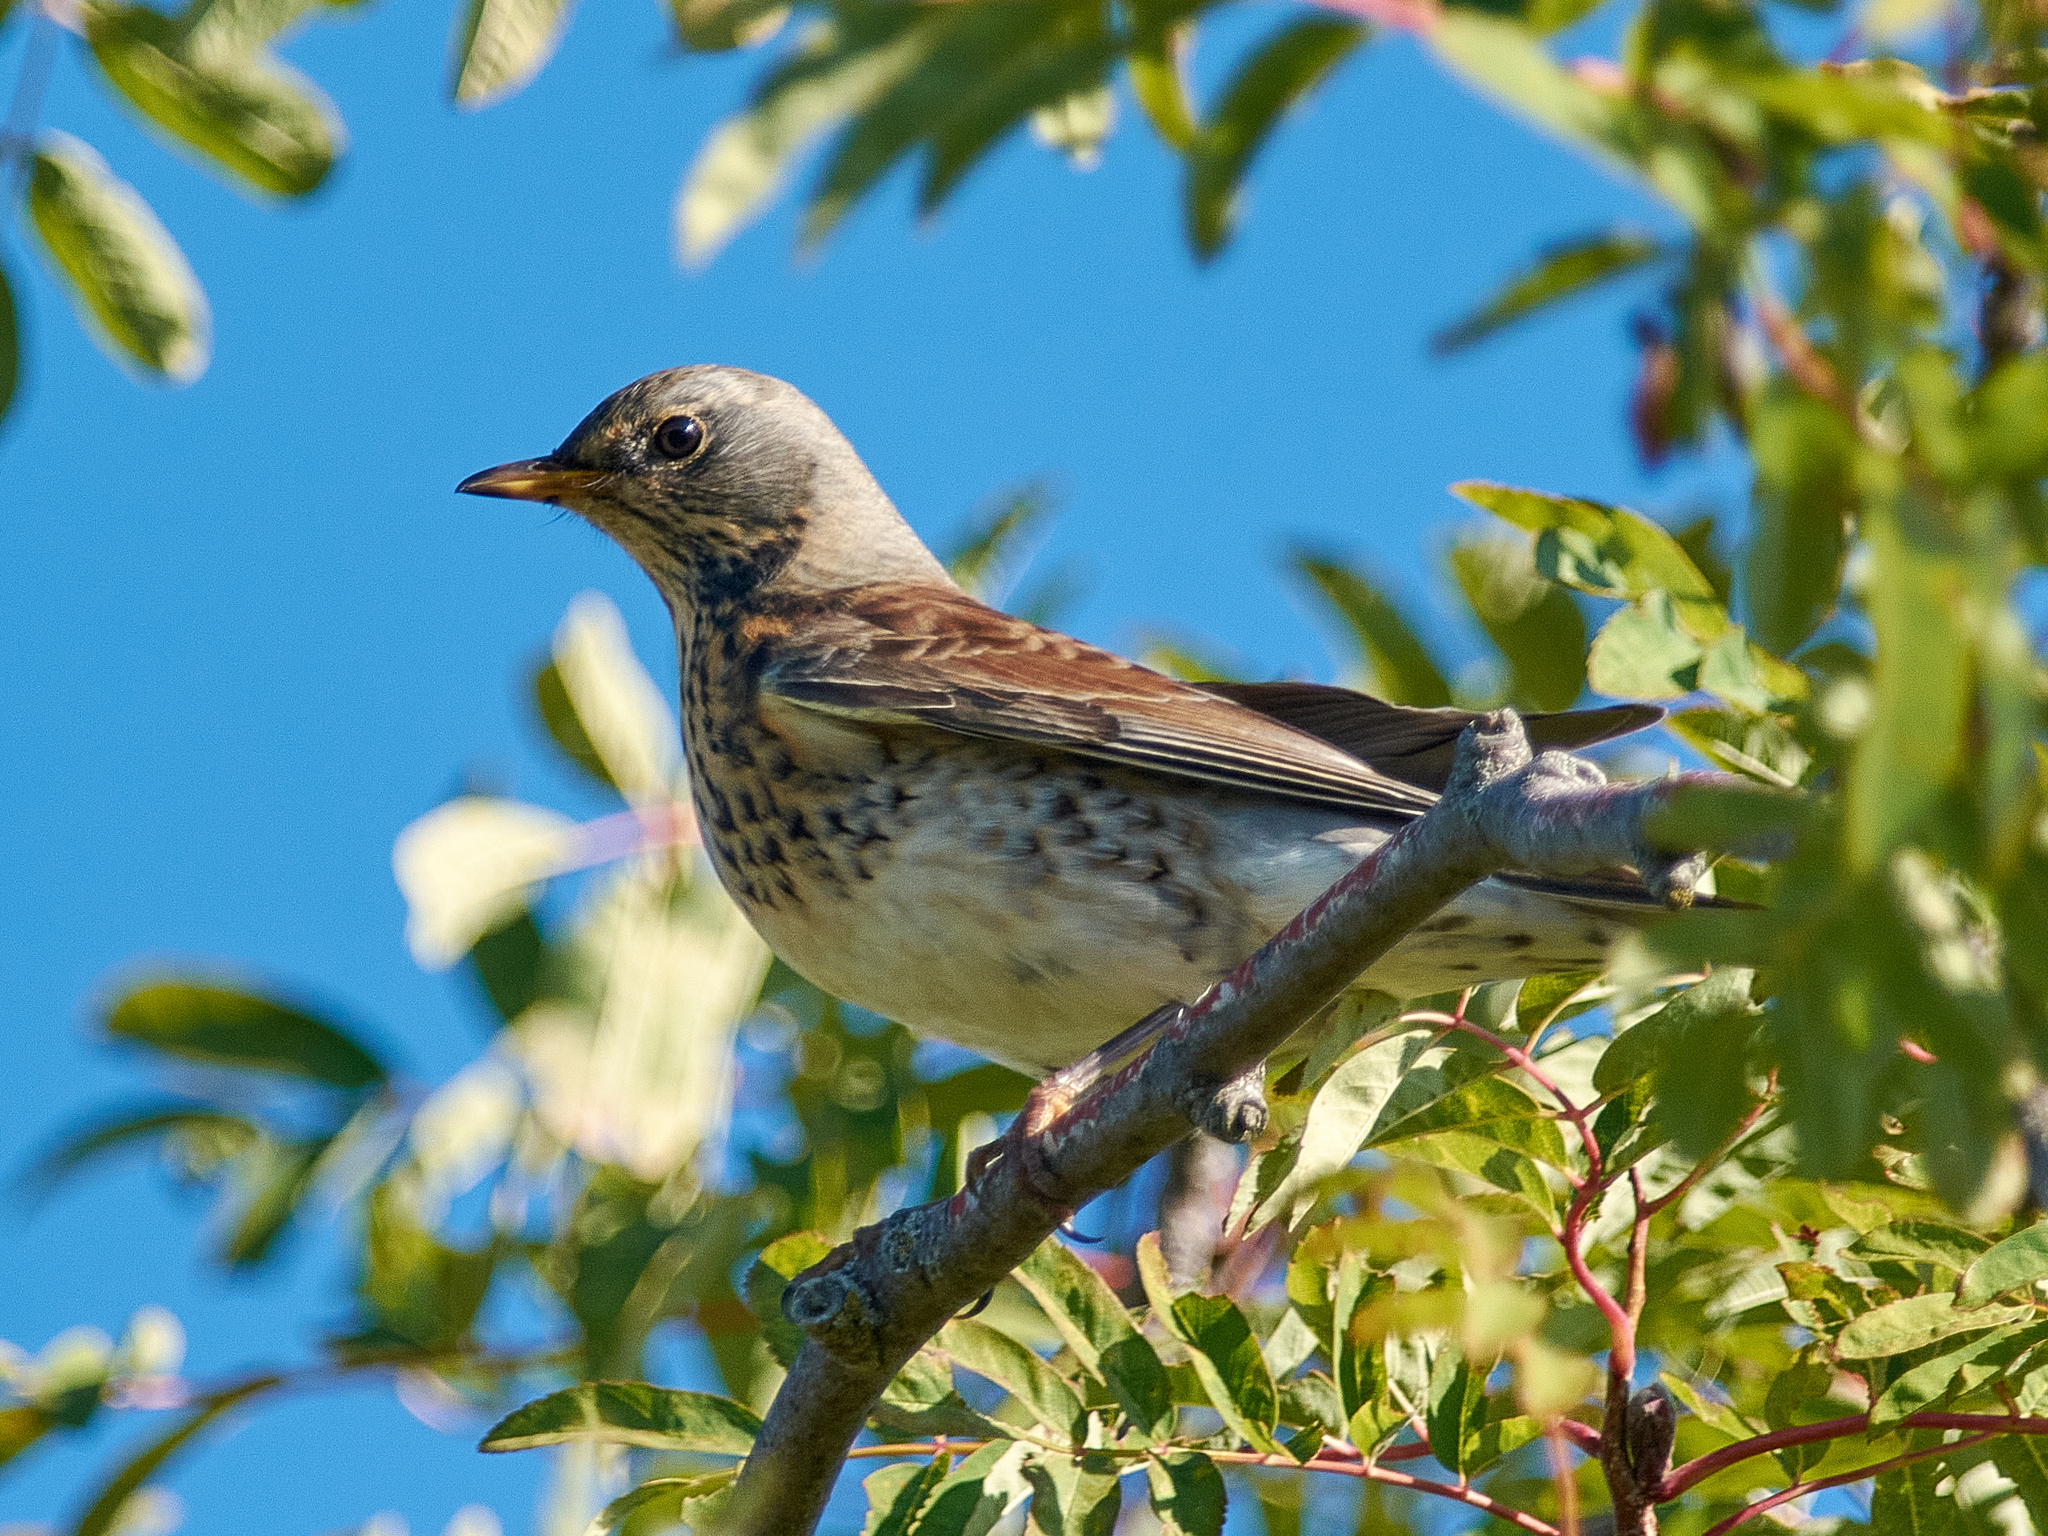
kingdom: Animalia
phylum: Chordata
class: Aves
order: Passeriformes
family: Turdidae
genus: Turdus
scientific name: Turdus pilaris
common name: Fieldfare
